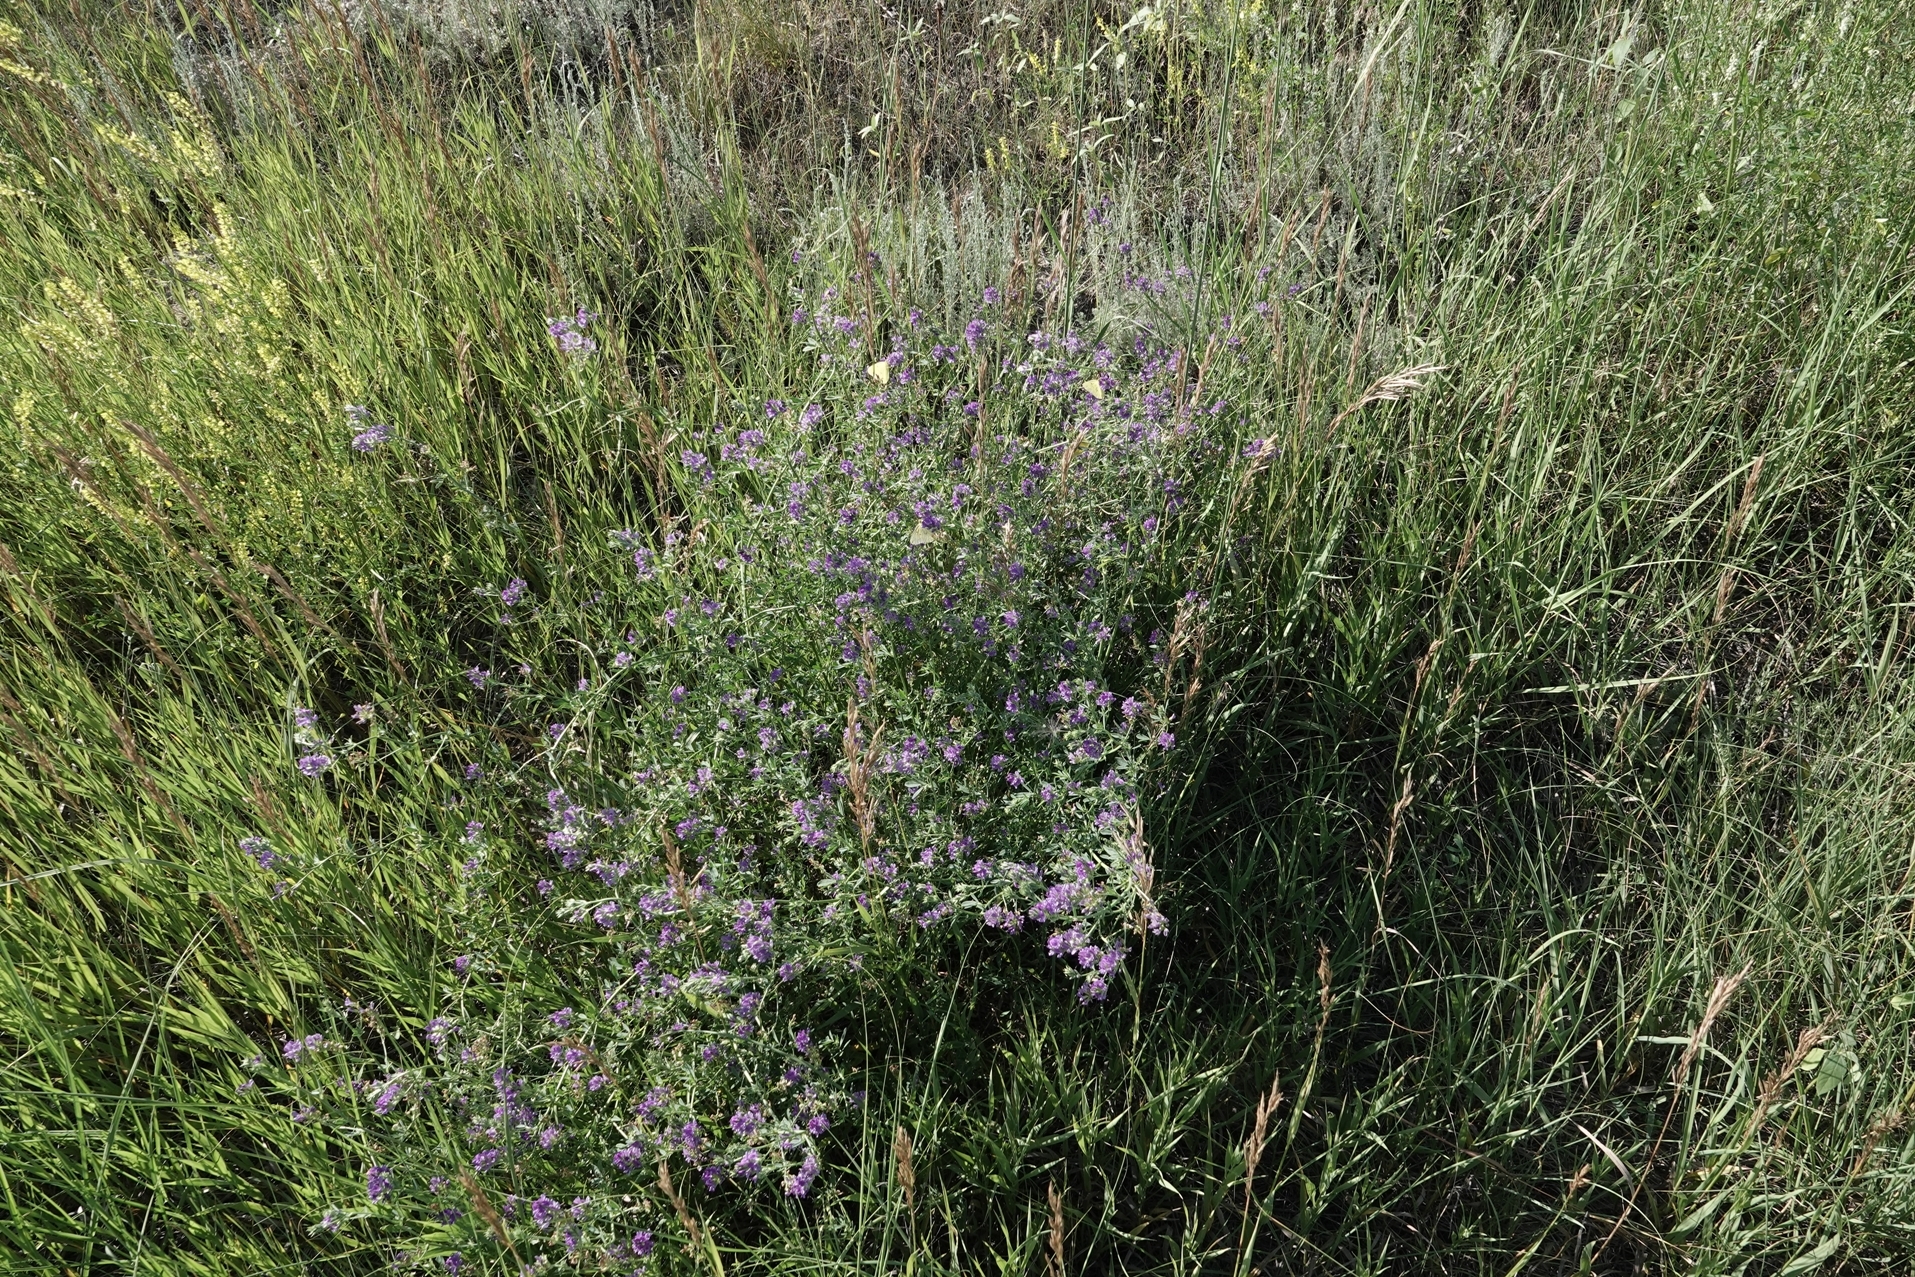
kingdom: Plantae
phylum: Tracheophyta
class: Magnoliopsida
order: Fabales
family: Fabaceae
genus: Medicago
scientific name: Medicago sativa
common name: Alfalfa
